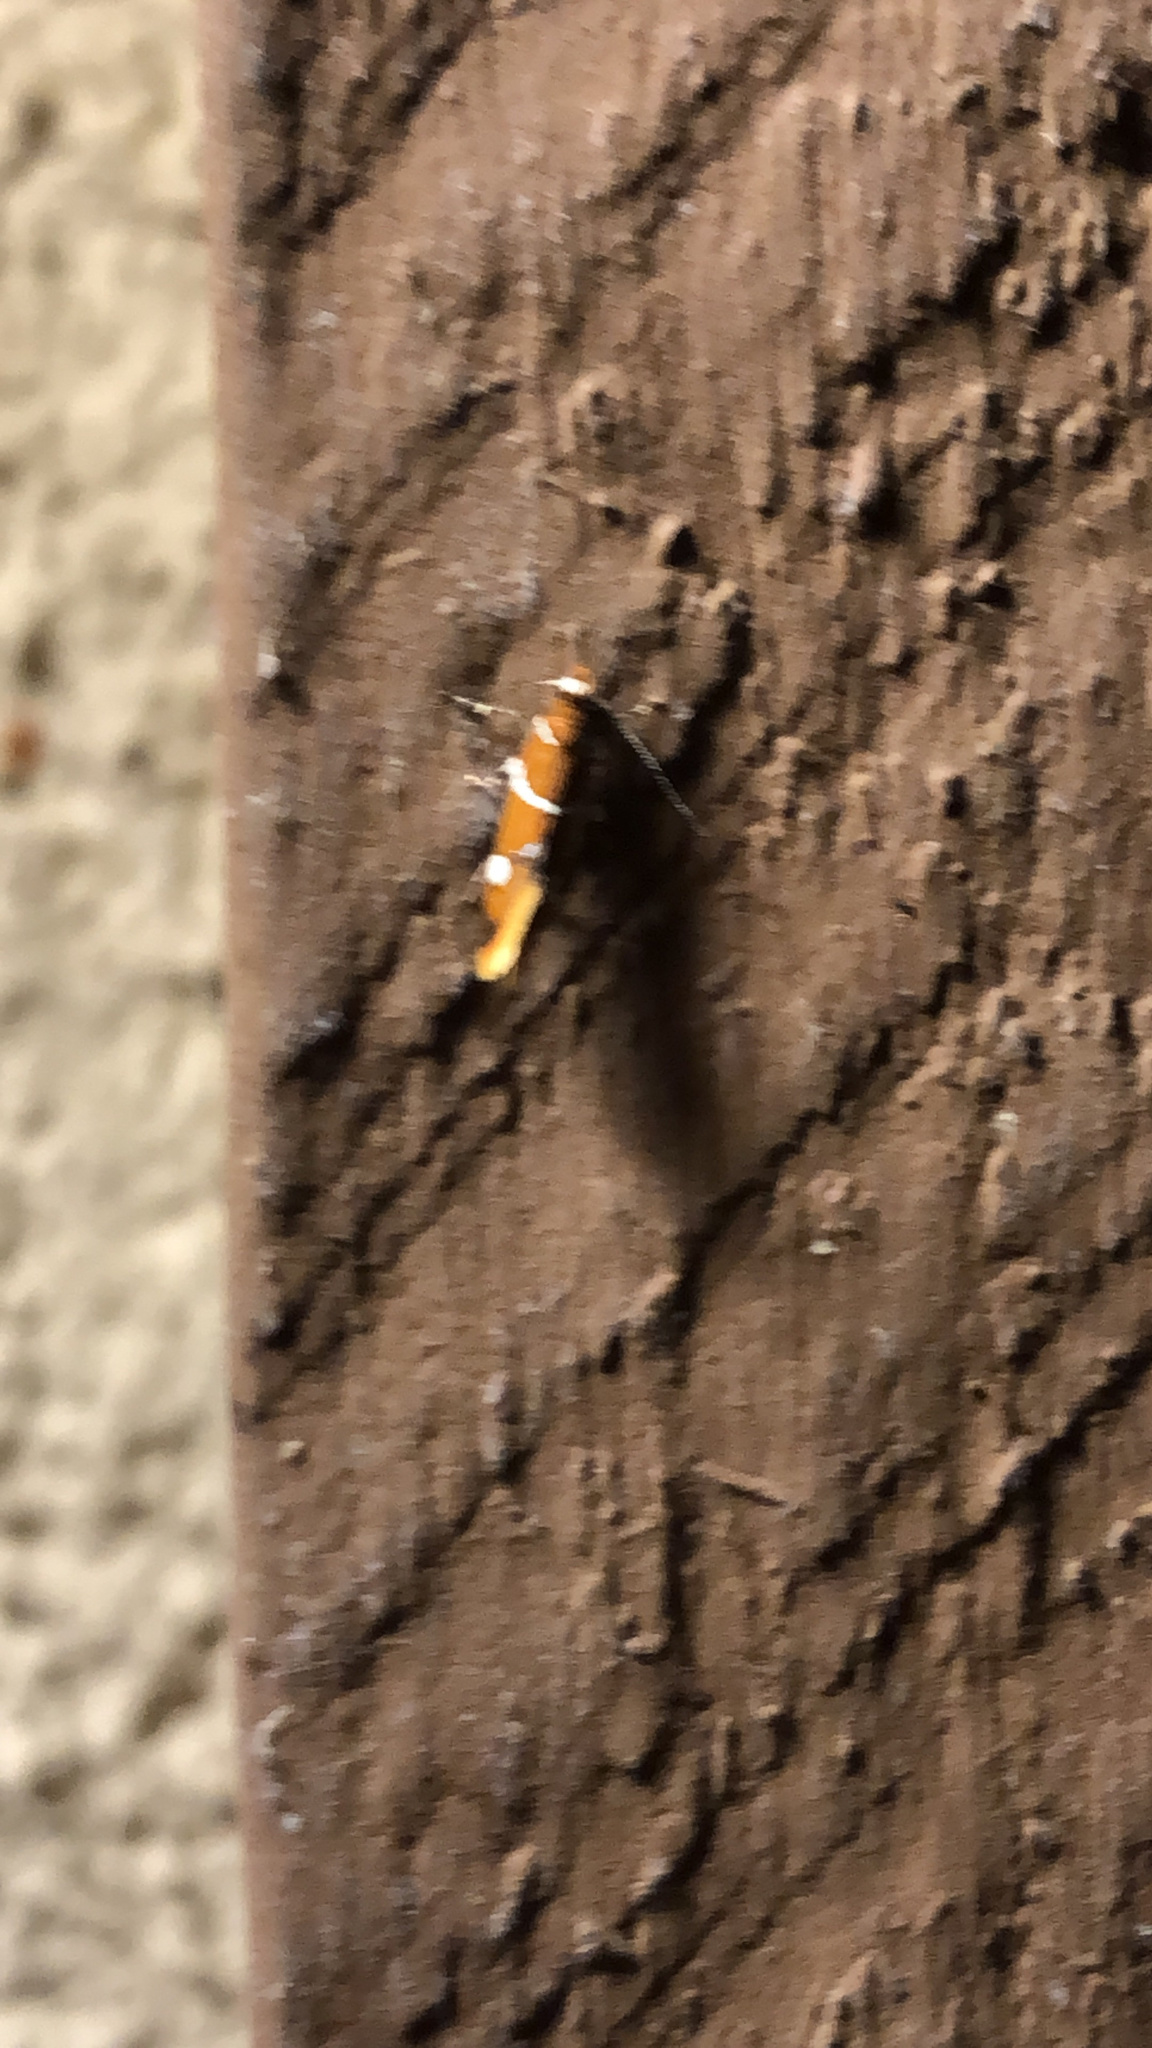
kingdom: Animalia
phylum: Arthropoda
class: Insecta
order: Lepidoptera
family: Oecophoridae
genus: Promalactis
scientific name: Promalactis suzukiella
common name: Moth
